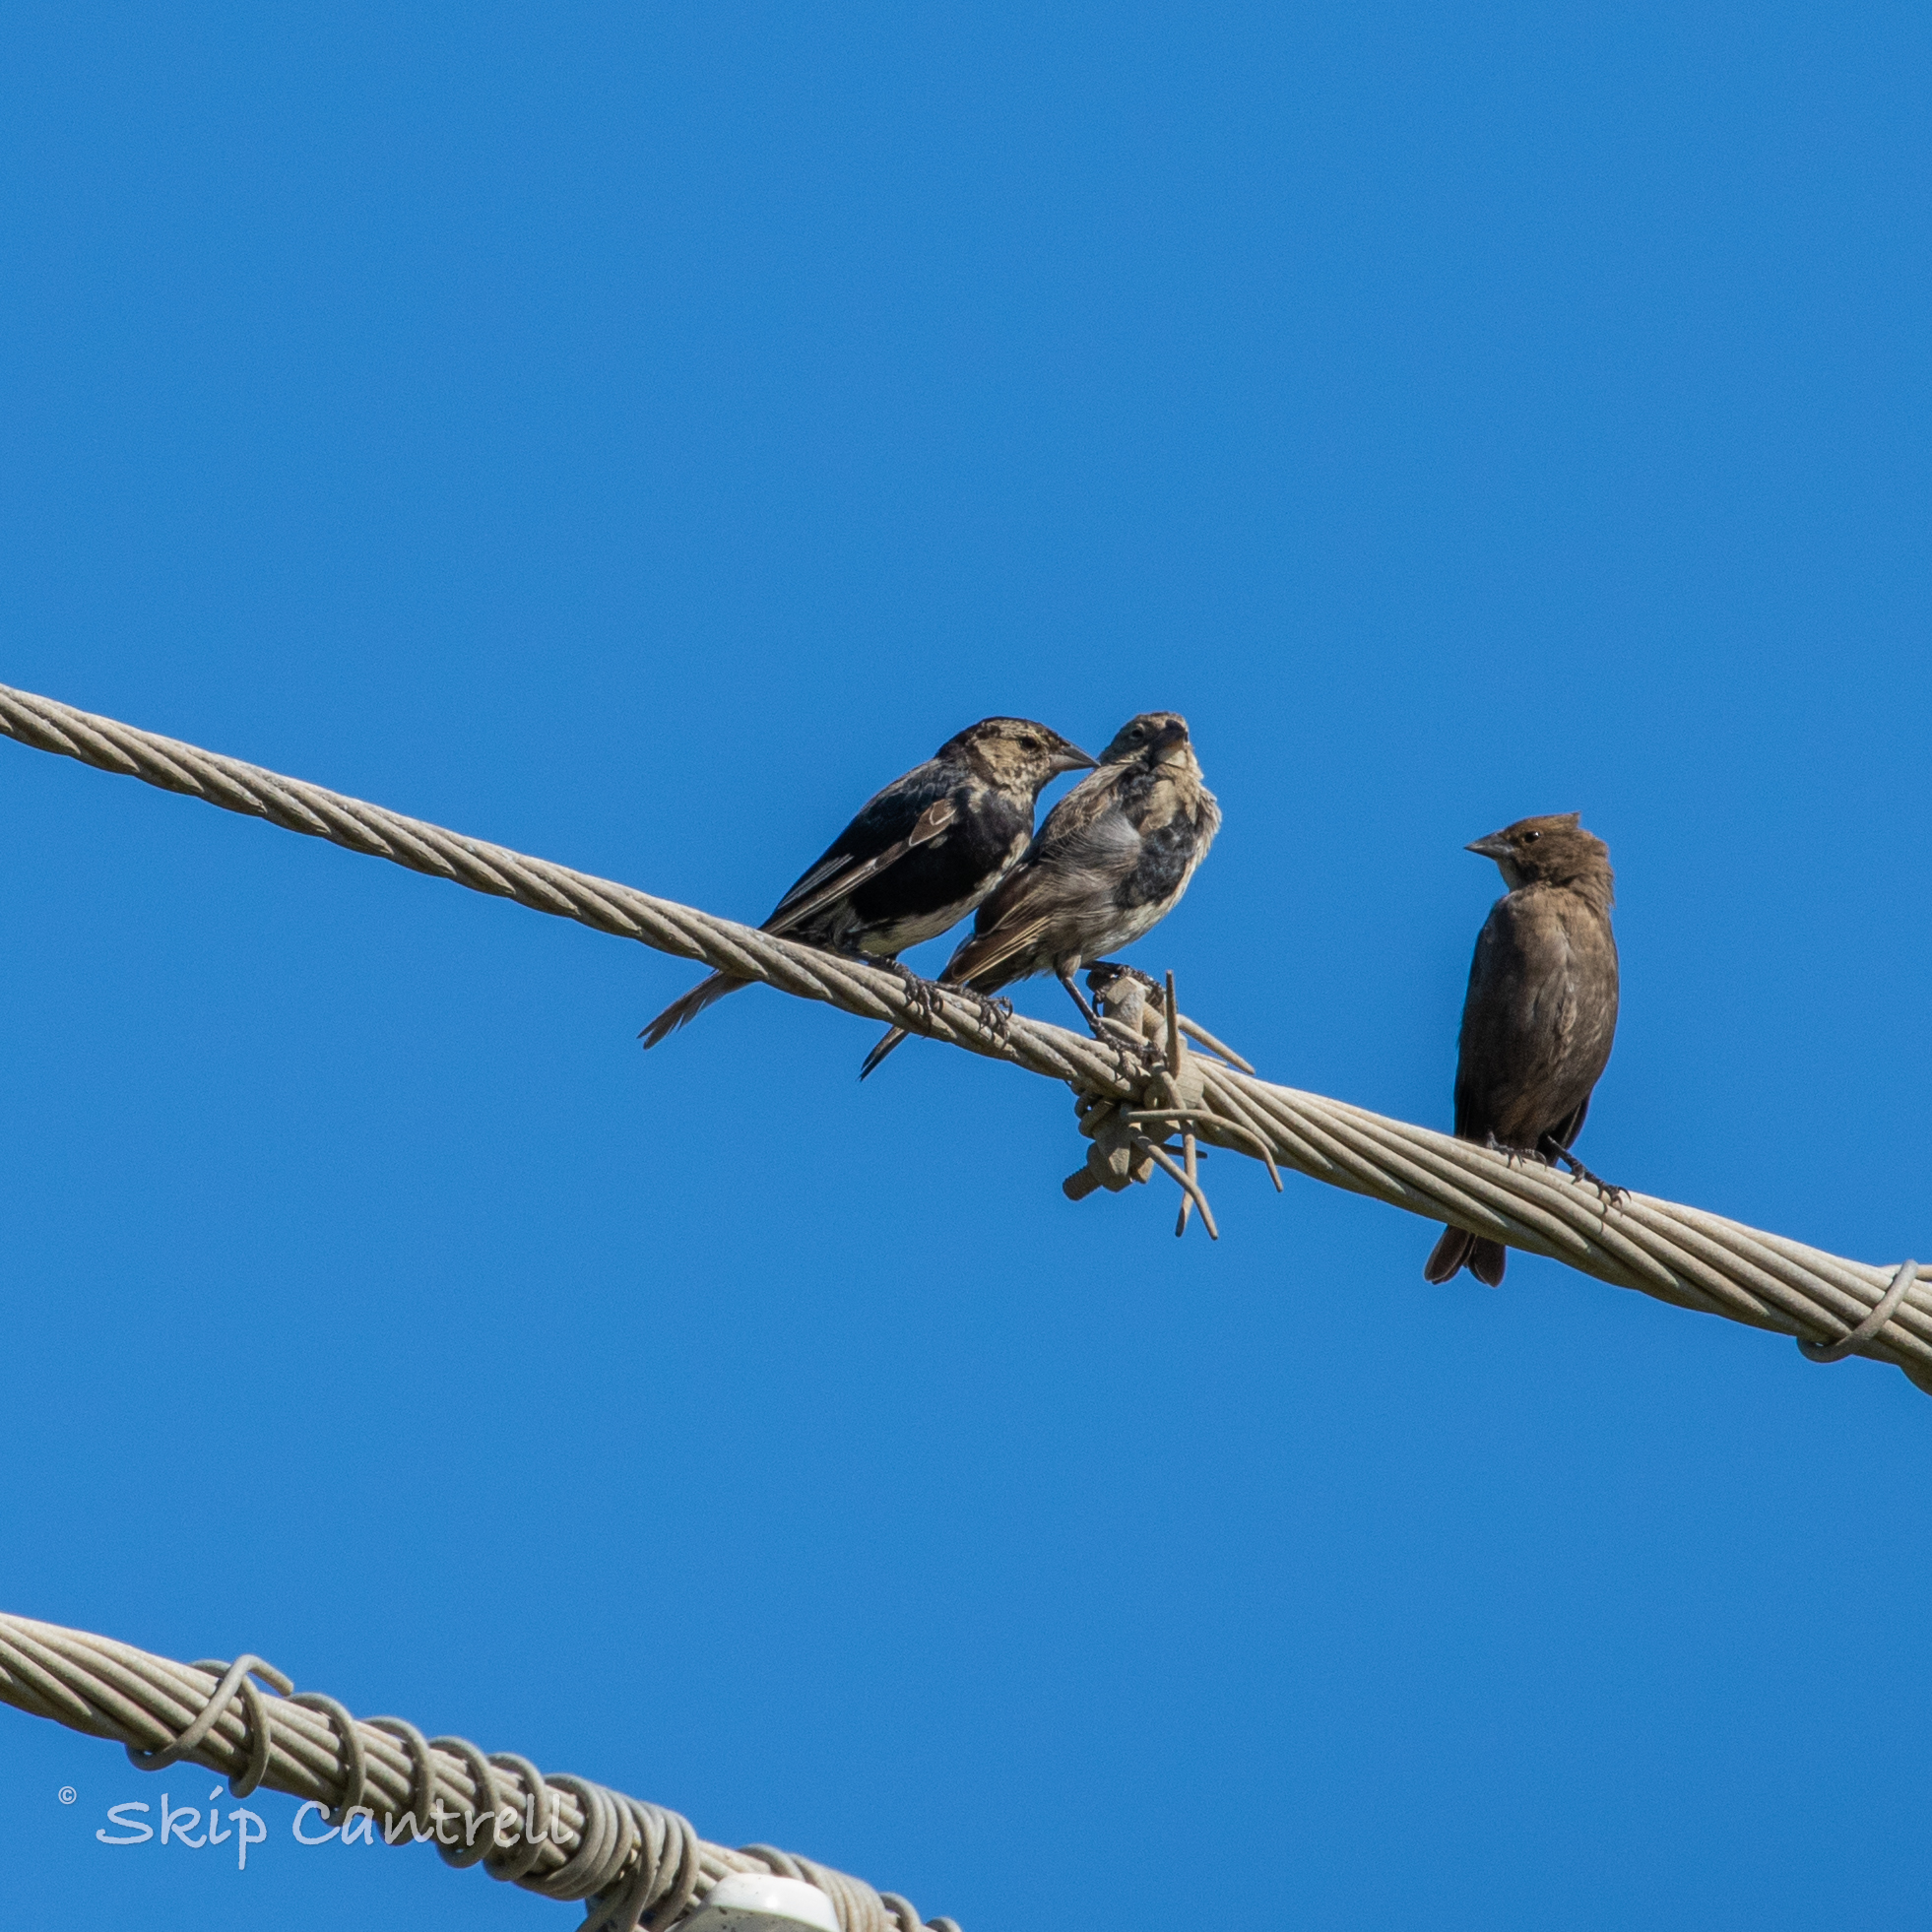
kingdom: Animalia
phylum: Chordata
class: Aves
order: Passeriformes
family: Icteridae
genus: Molothrus
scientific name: Molothrus ater
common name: Brown-headed cowbird
